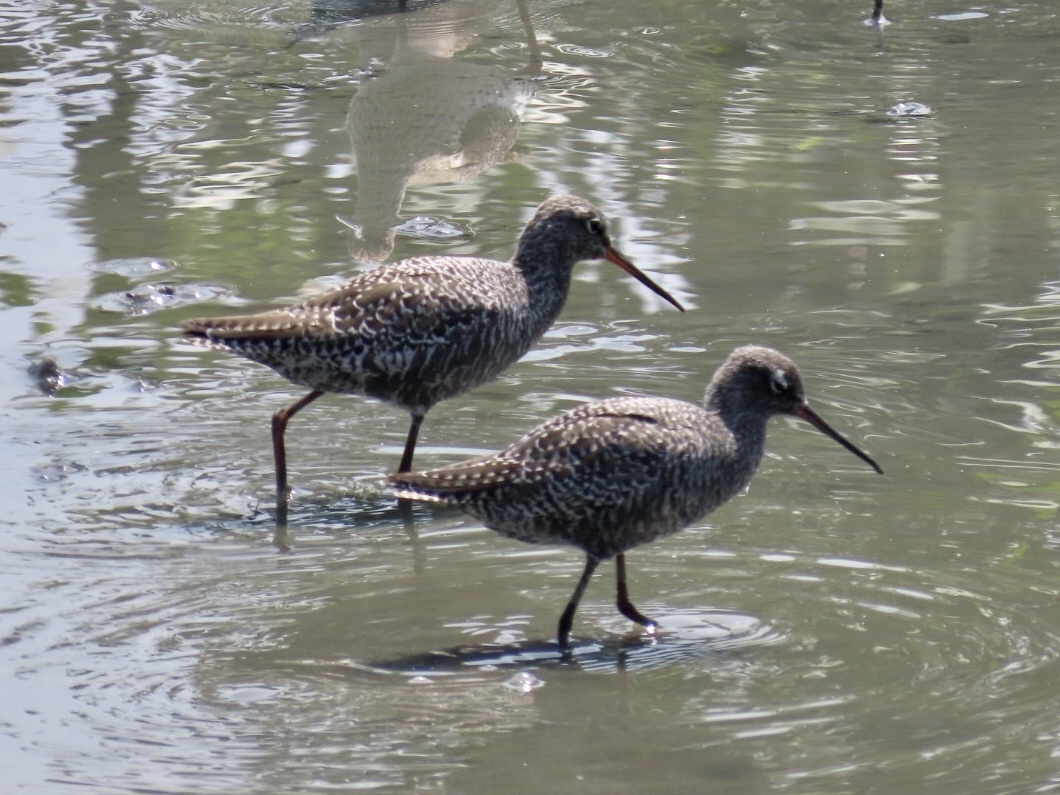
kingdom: Animalia
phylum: Chordata
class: Aves
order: Charadriiformes
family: Scolopacidae
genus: Tringa
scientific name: Tringa erythropus
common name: Spotted redshank
